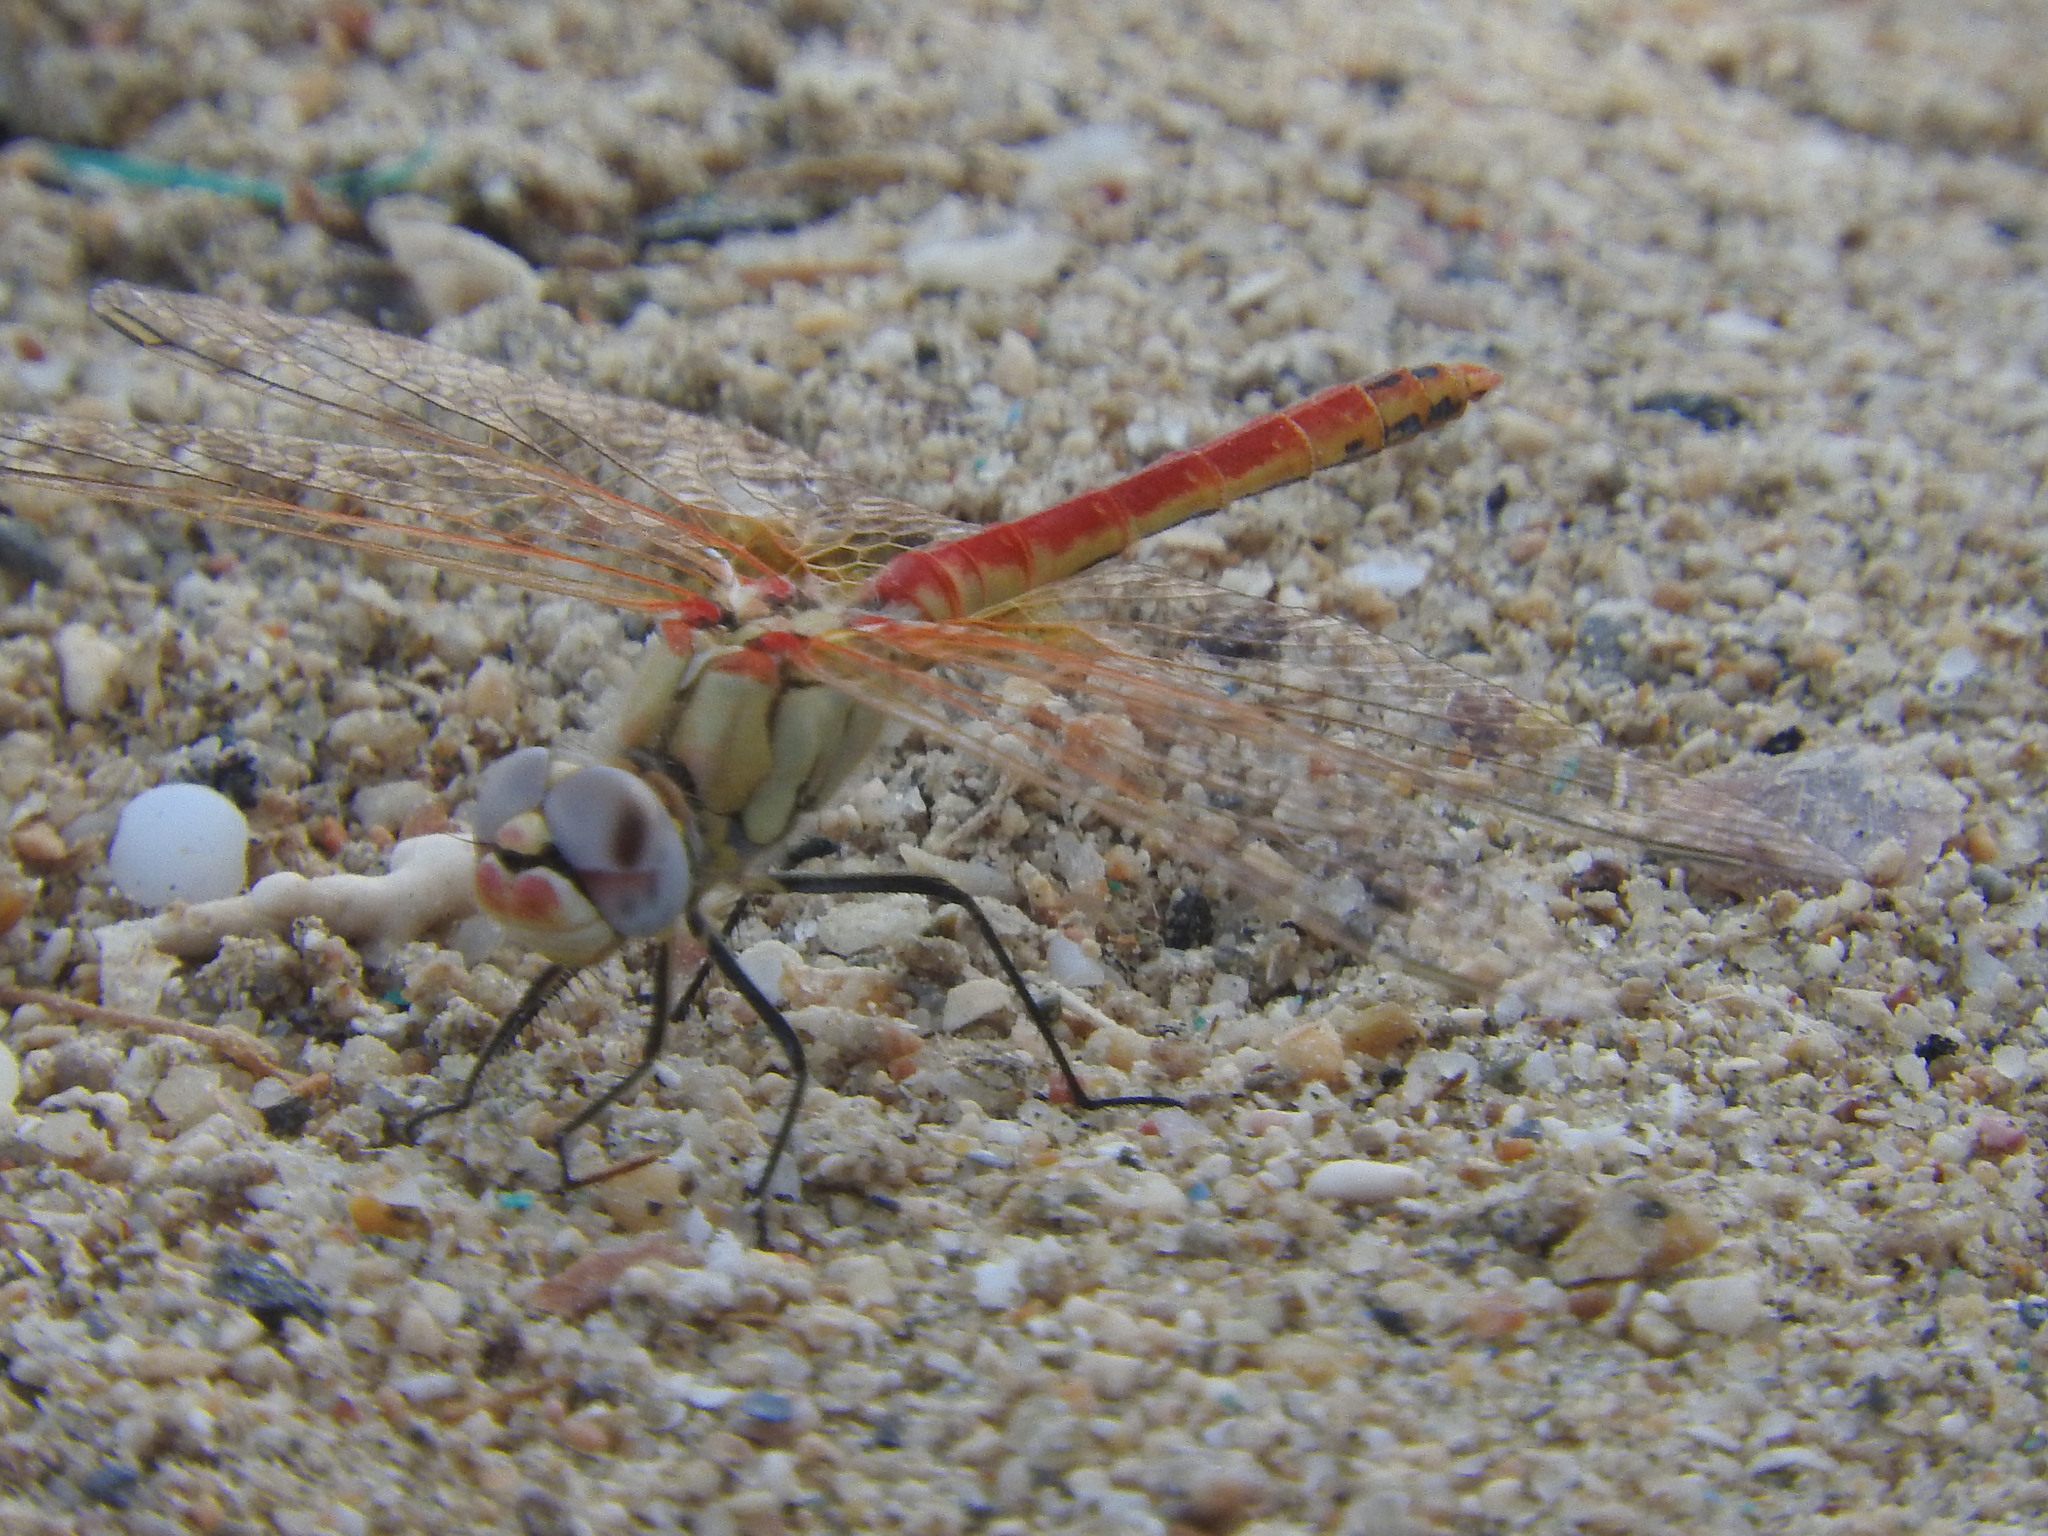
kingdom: Animalia
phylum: Arthropoda
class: Insecta
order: Odonata
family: Libellulidae
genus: Sympetrum
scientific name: Sympetrum fonscolombii
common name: Red-veined darter
